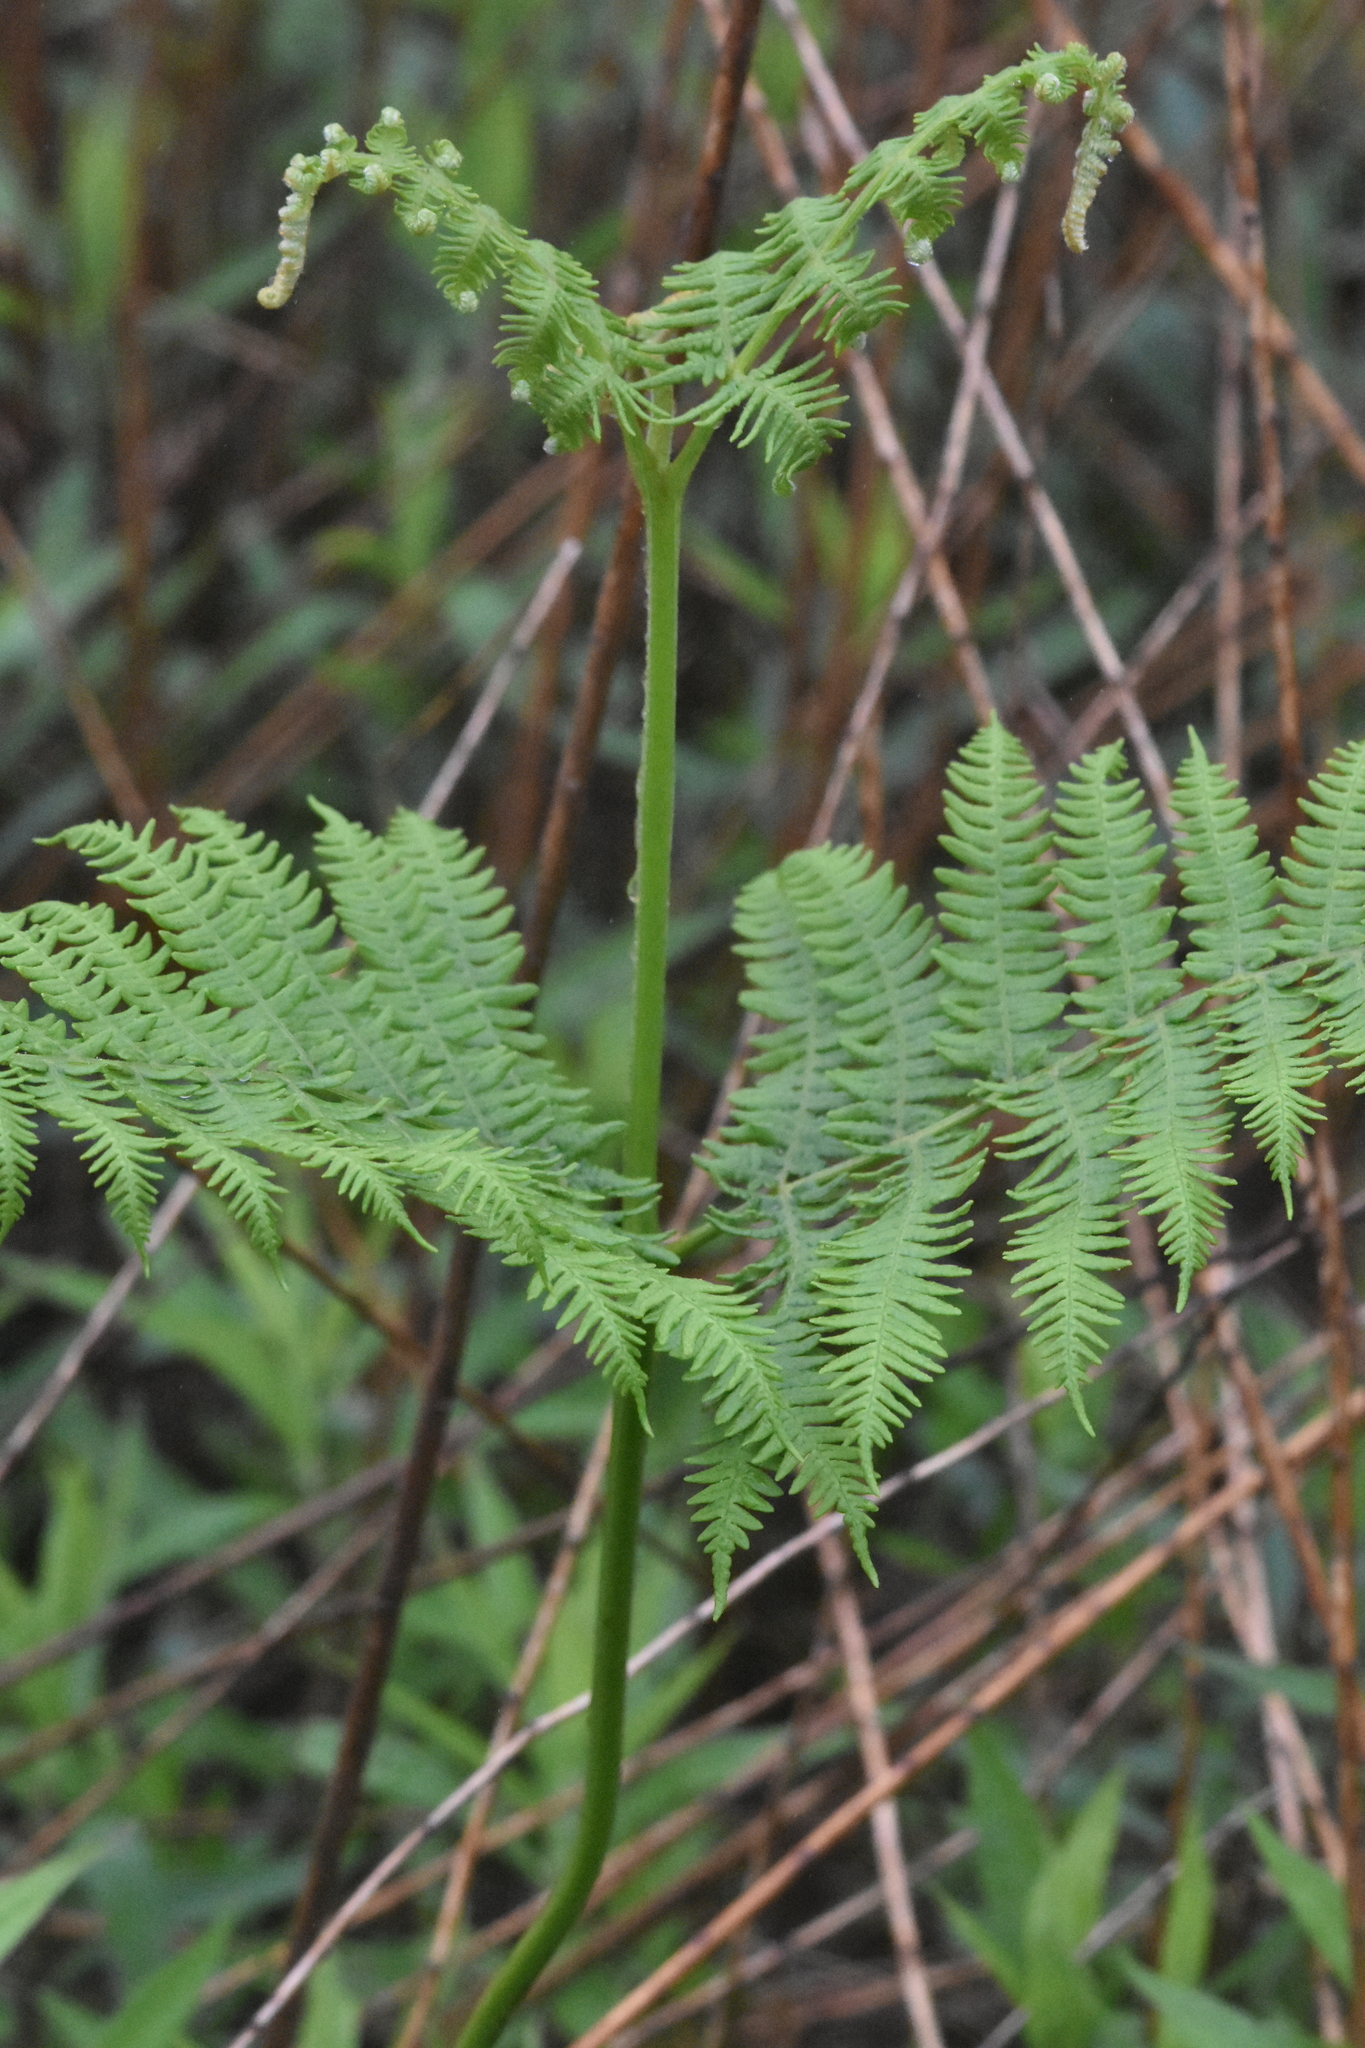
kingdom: Plantae
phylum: Tracheophyta
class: Polypodiopsida
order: Polypodiales
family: Dennstaedtiaceae
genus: Pteridium
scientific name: Pteridium tauricum
